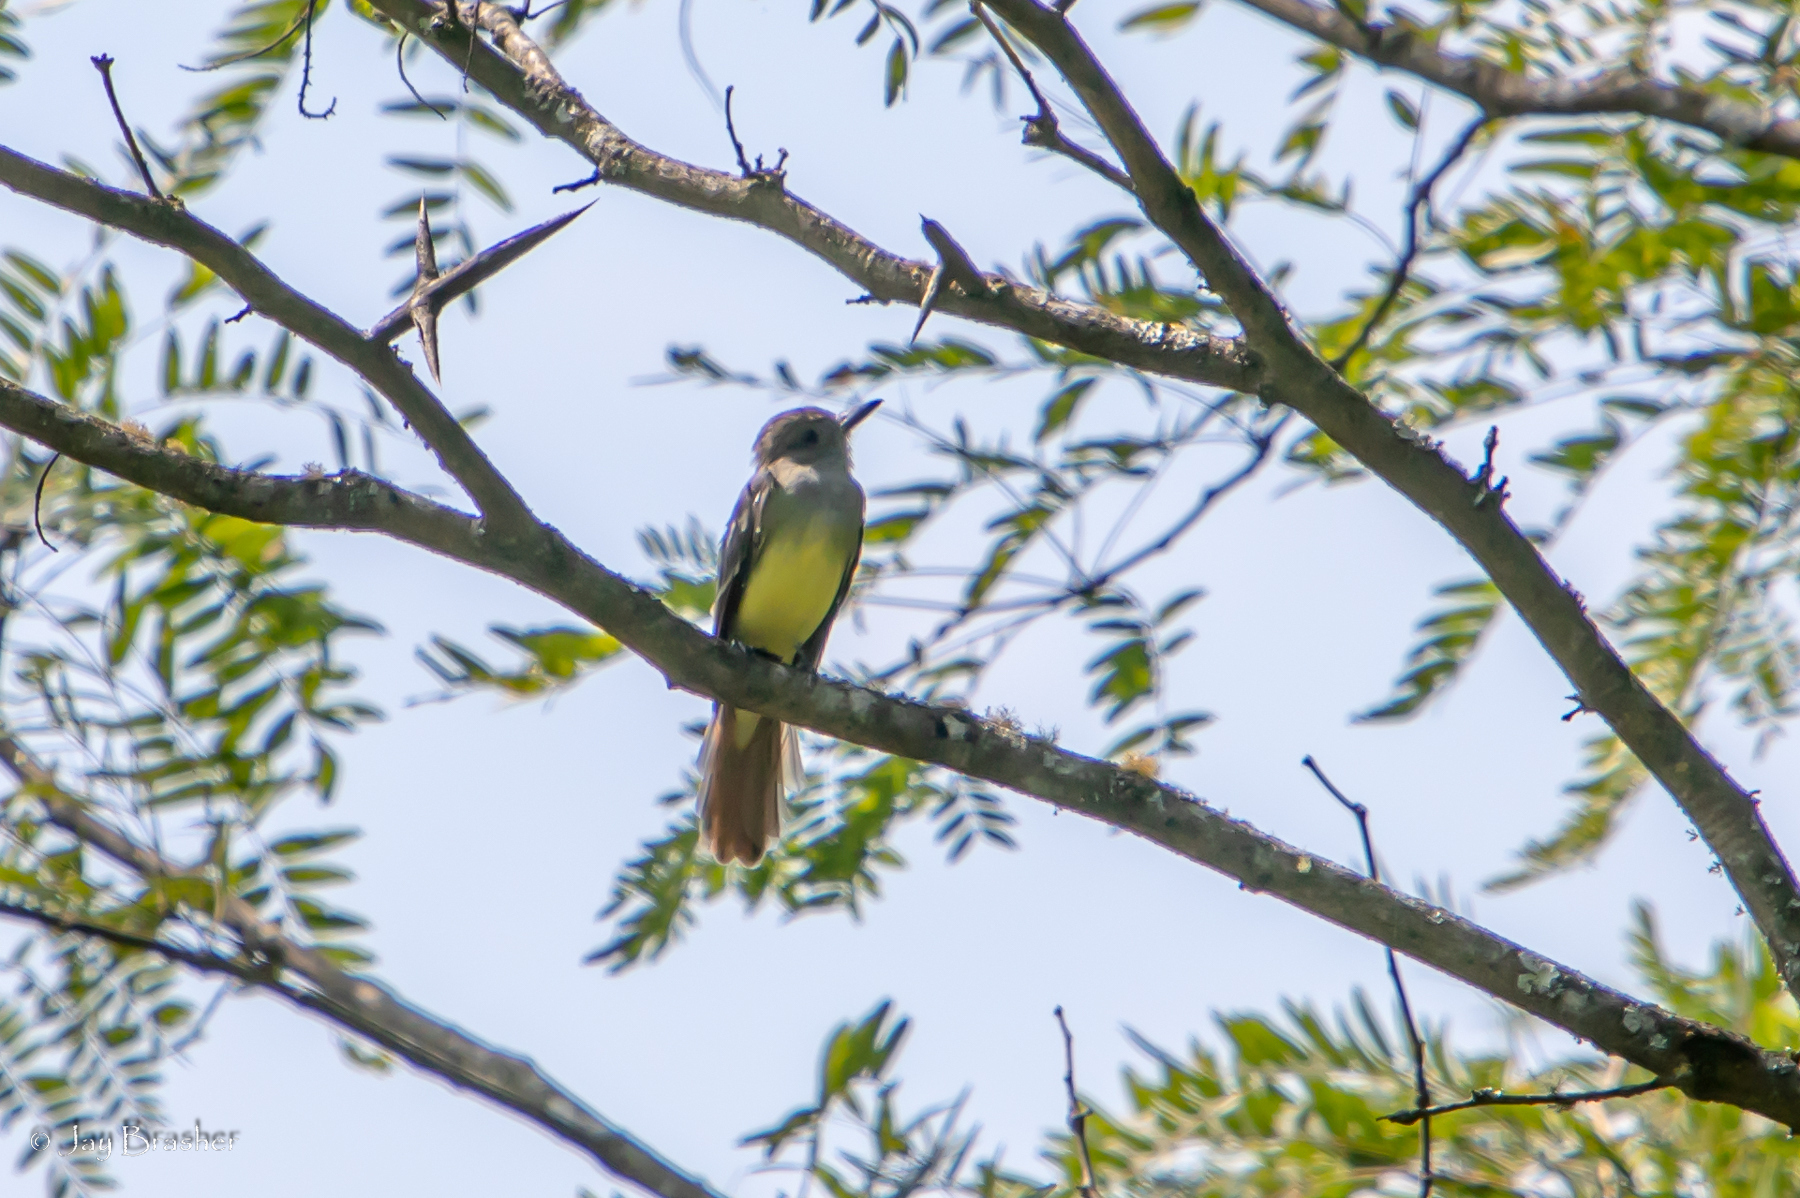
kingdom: Animalia
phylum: Chordata
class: Aves
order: Passeriformes
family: Tyrannidae
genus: Myiarchus
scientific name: Myiarchus crinitus
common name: Great crested flycatcher
